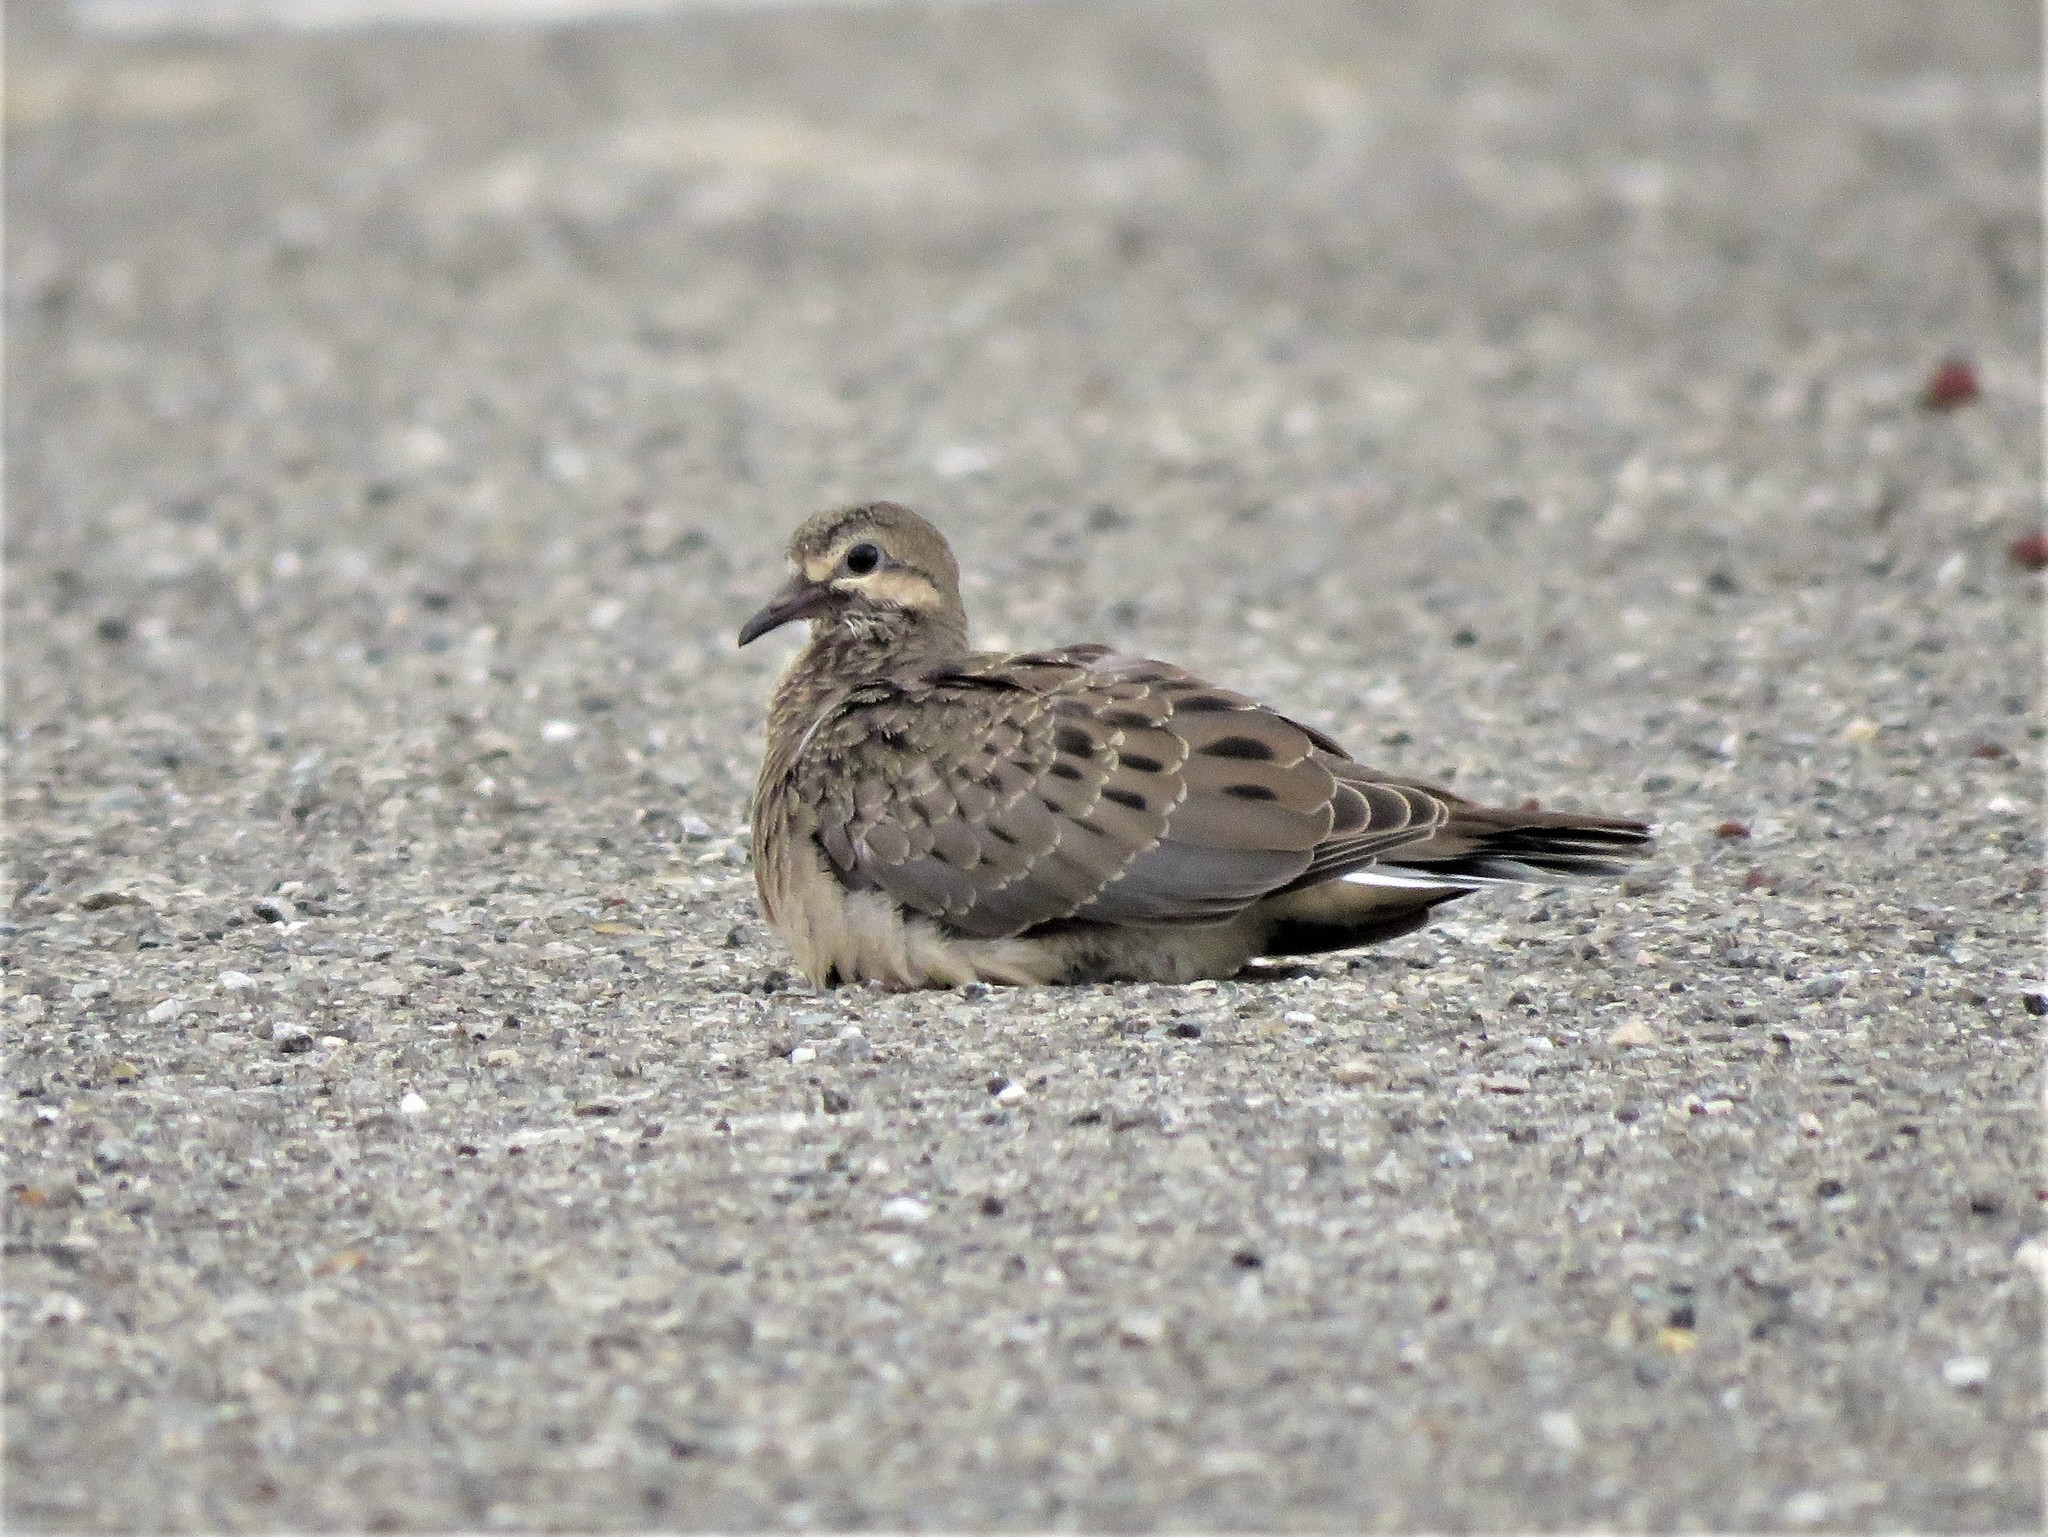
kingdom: Animalia
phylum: Chordata
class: Aves
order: Columbiformes
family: Columbidae
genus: Zenaida
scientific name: Zenaida macroura
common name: Mourning dove
